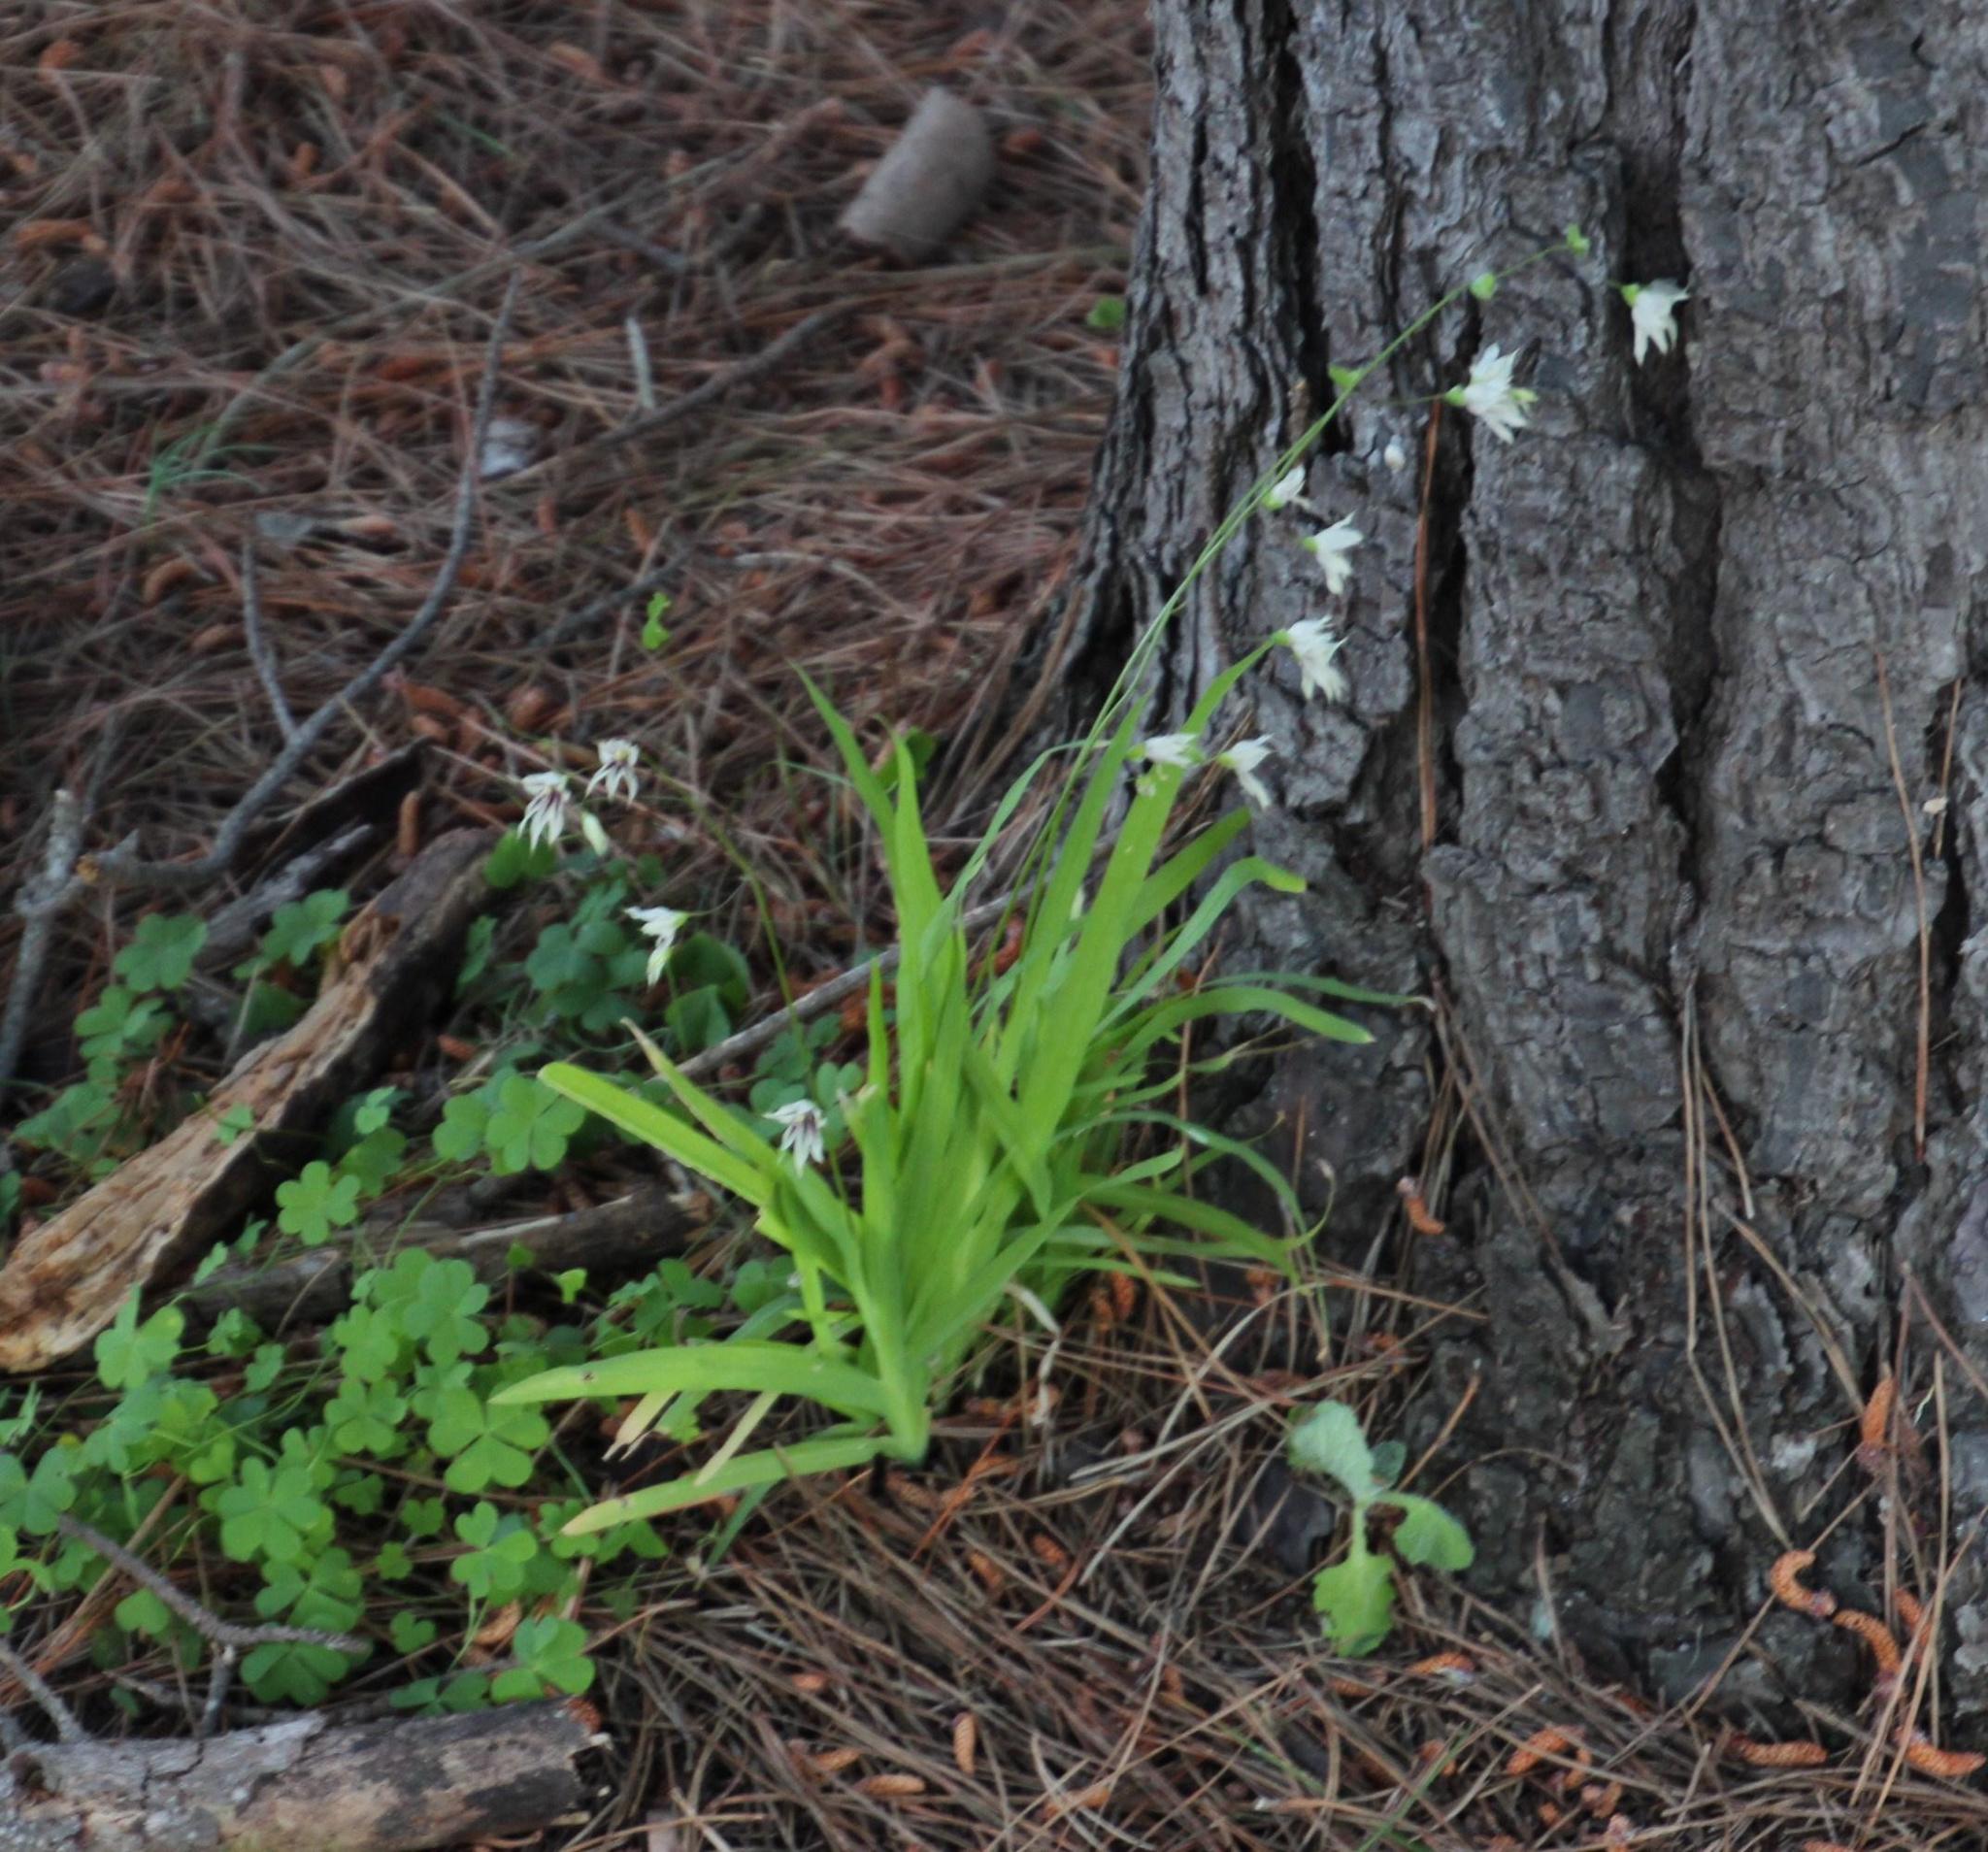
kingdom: Plantae
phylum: Tracheophyta
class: Liliopsida
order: Asparagales
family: Iridaceae
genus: Melasphaerula
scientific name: Melasphaerula graminea
